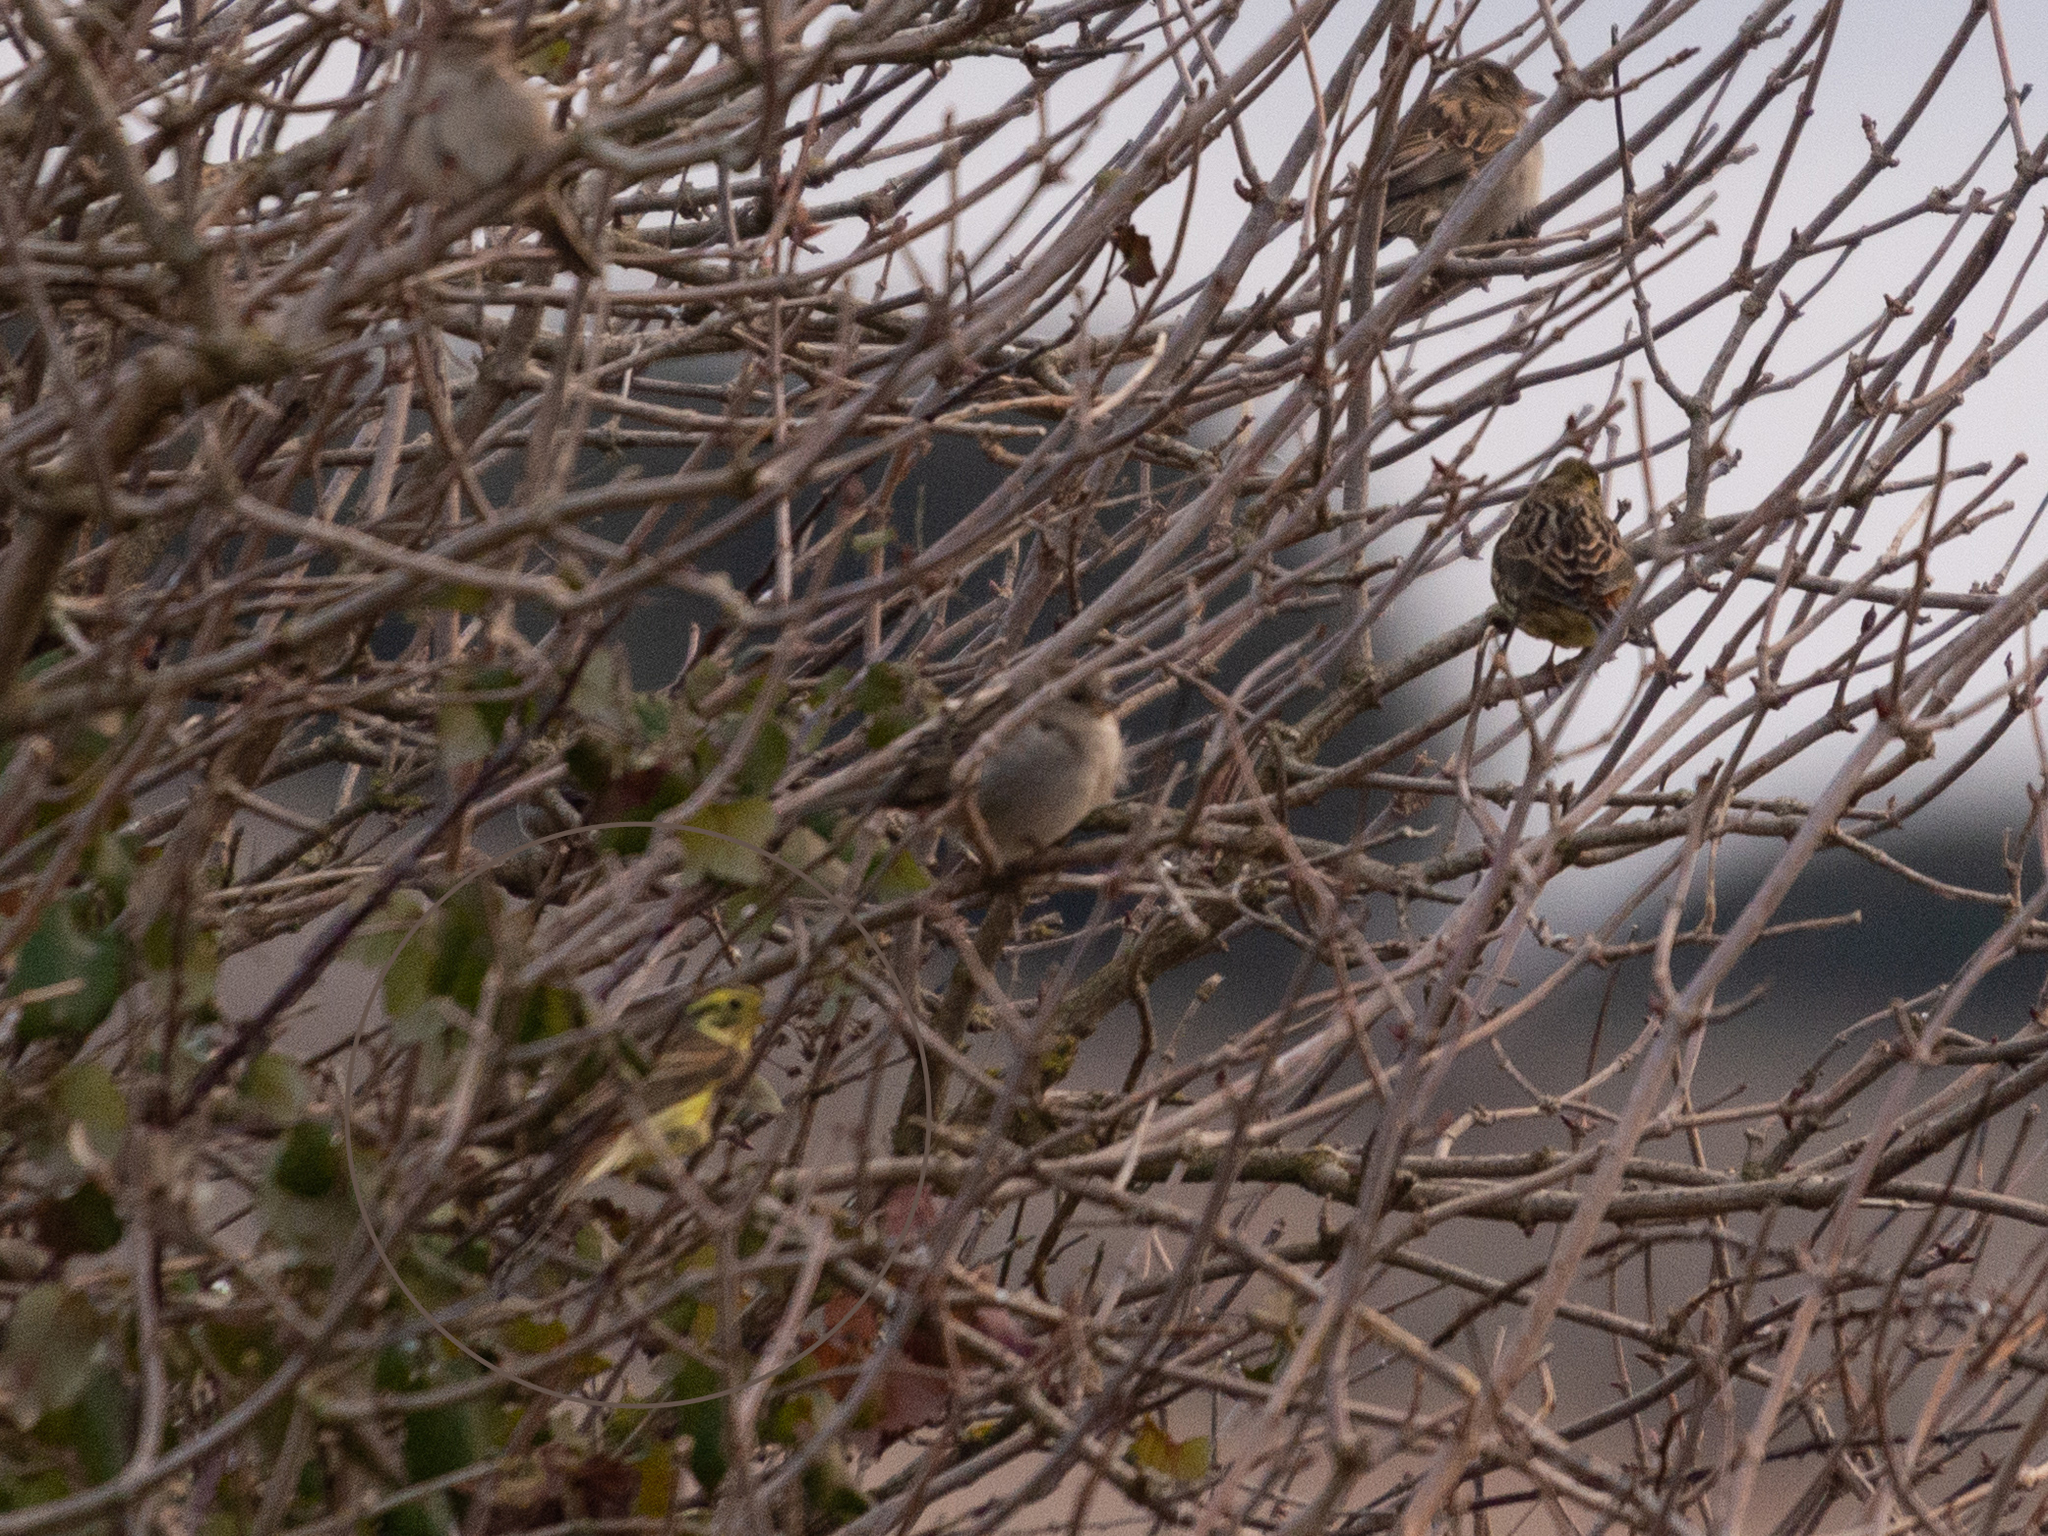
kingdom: Animalia
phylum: Chordata
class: Aves
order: Passeriformes
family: Emberizidae
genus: Emberiza
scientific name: Emberiza citrinella
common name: Yellowhammer
